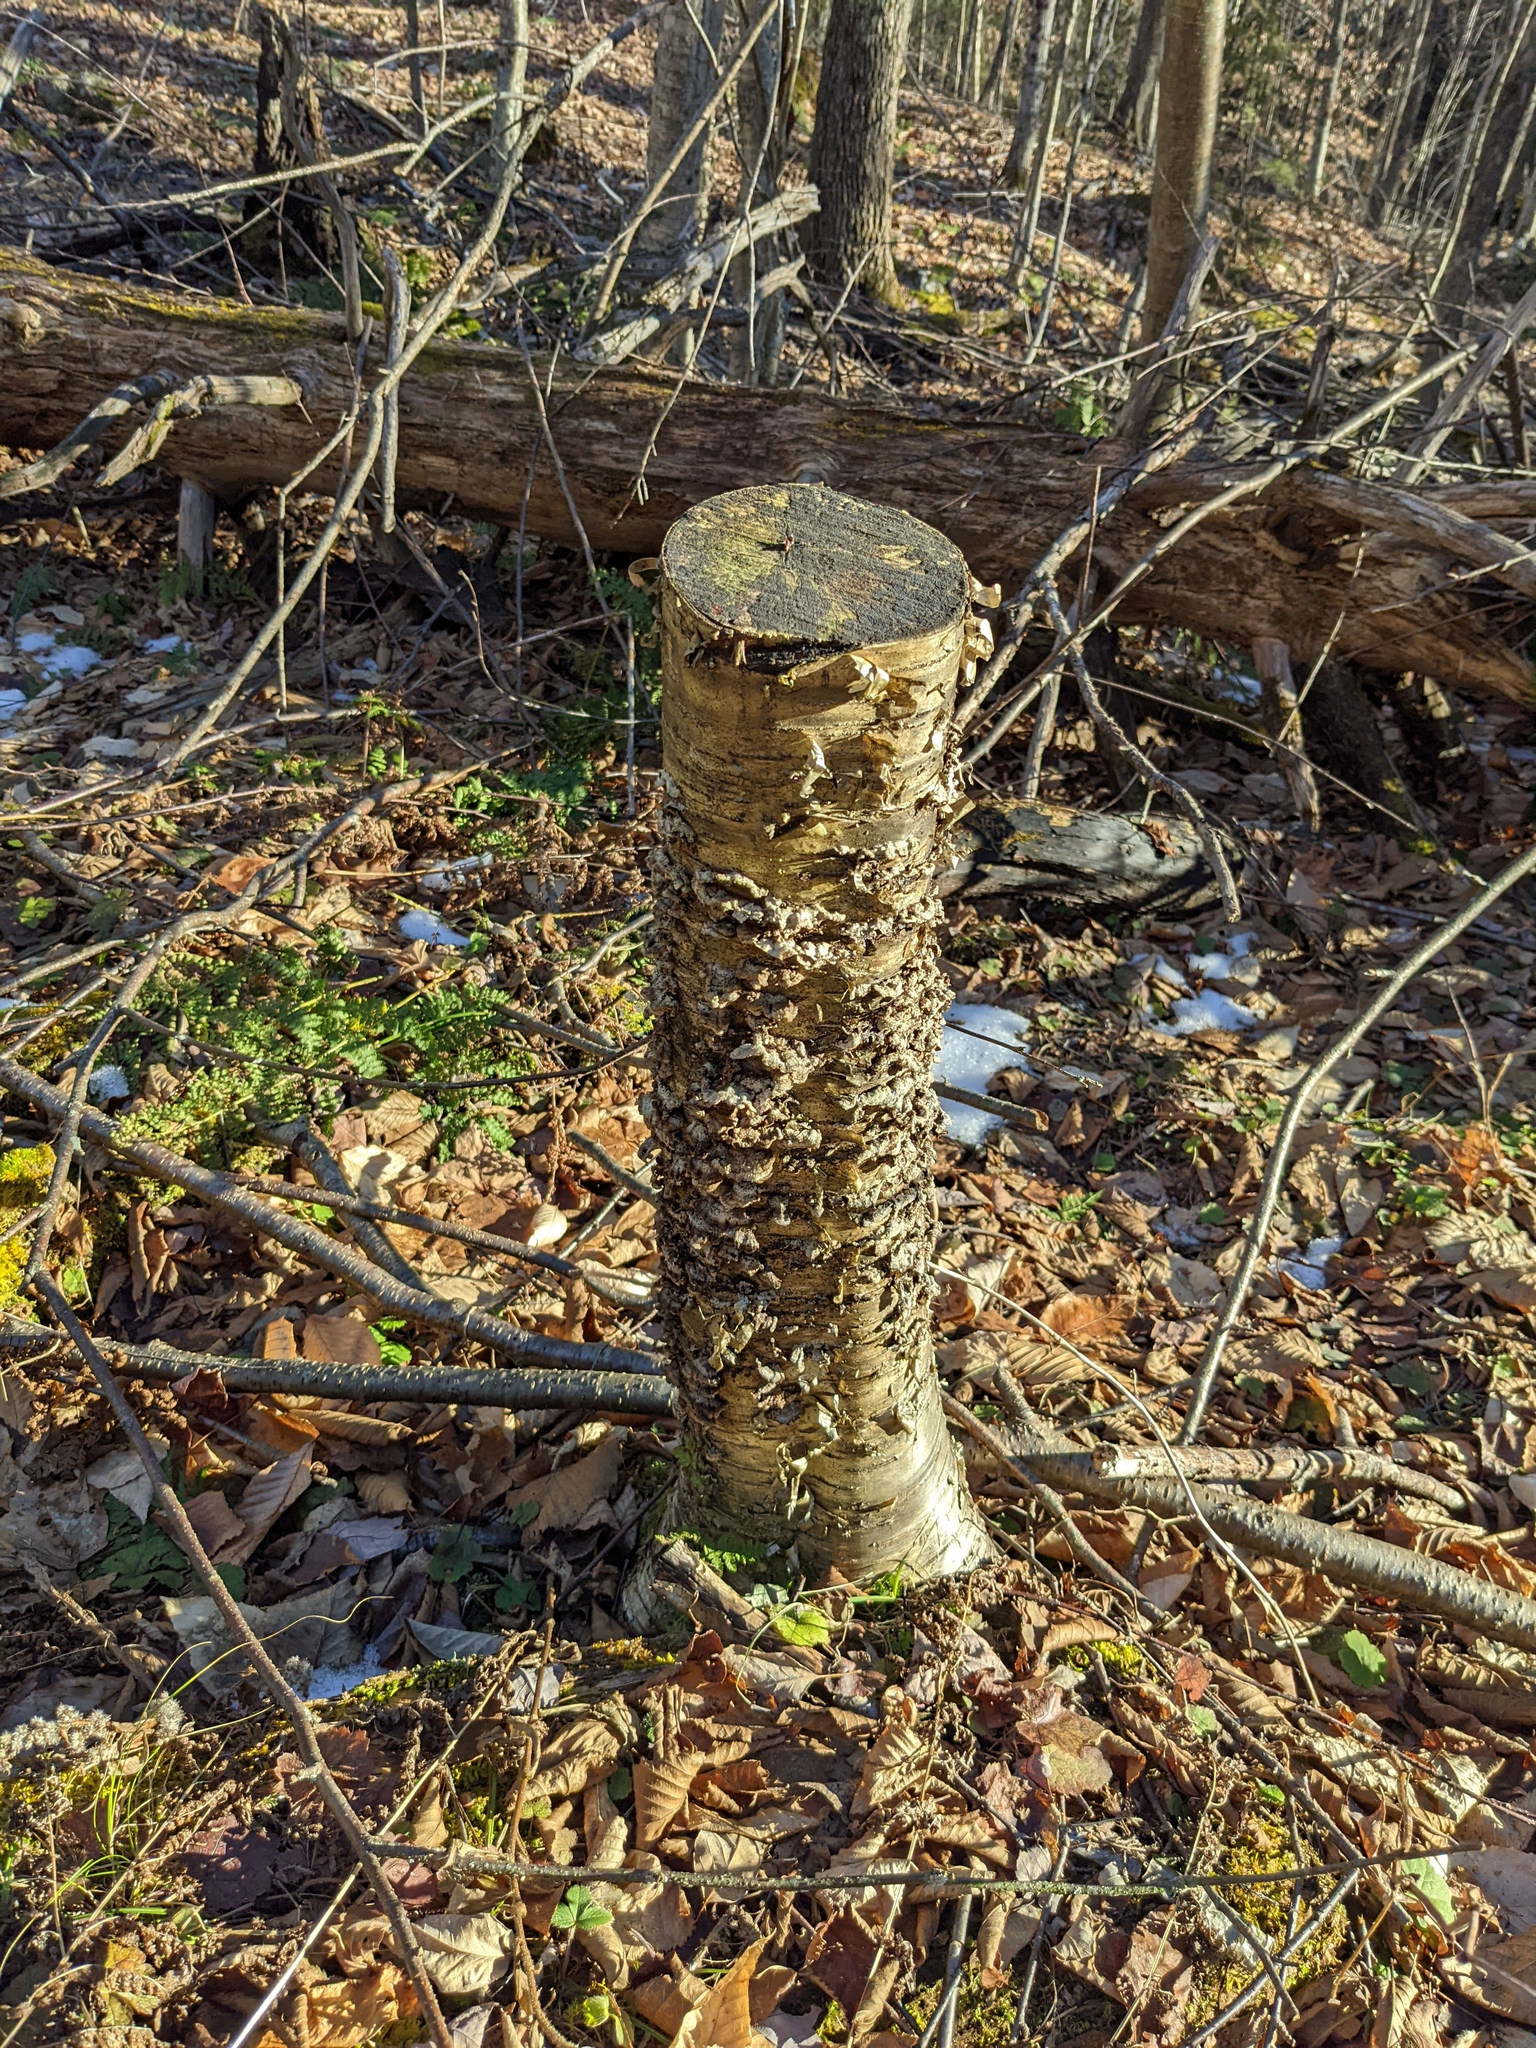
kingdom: Plantae
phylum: Tracheophyta
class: Magnoliopsida
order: Fagales
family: Betulaceae
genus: Betula
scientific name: Betula alleghaniensis
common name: Yellow birch
